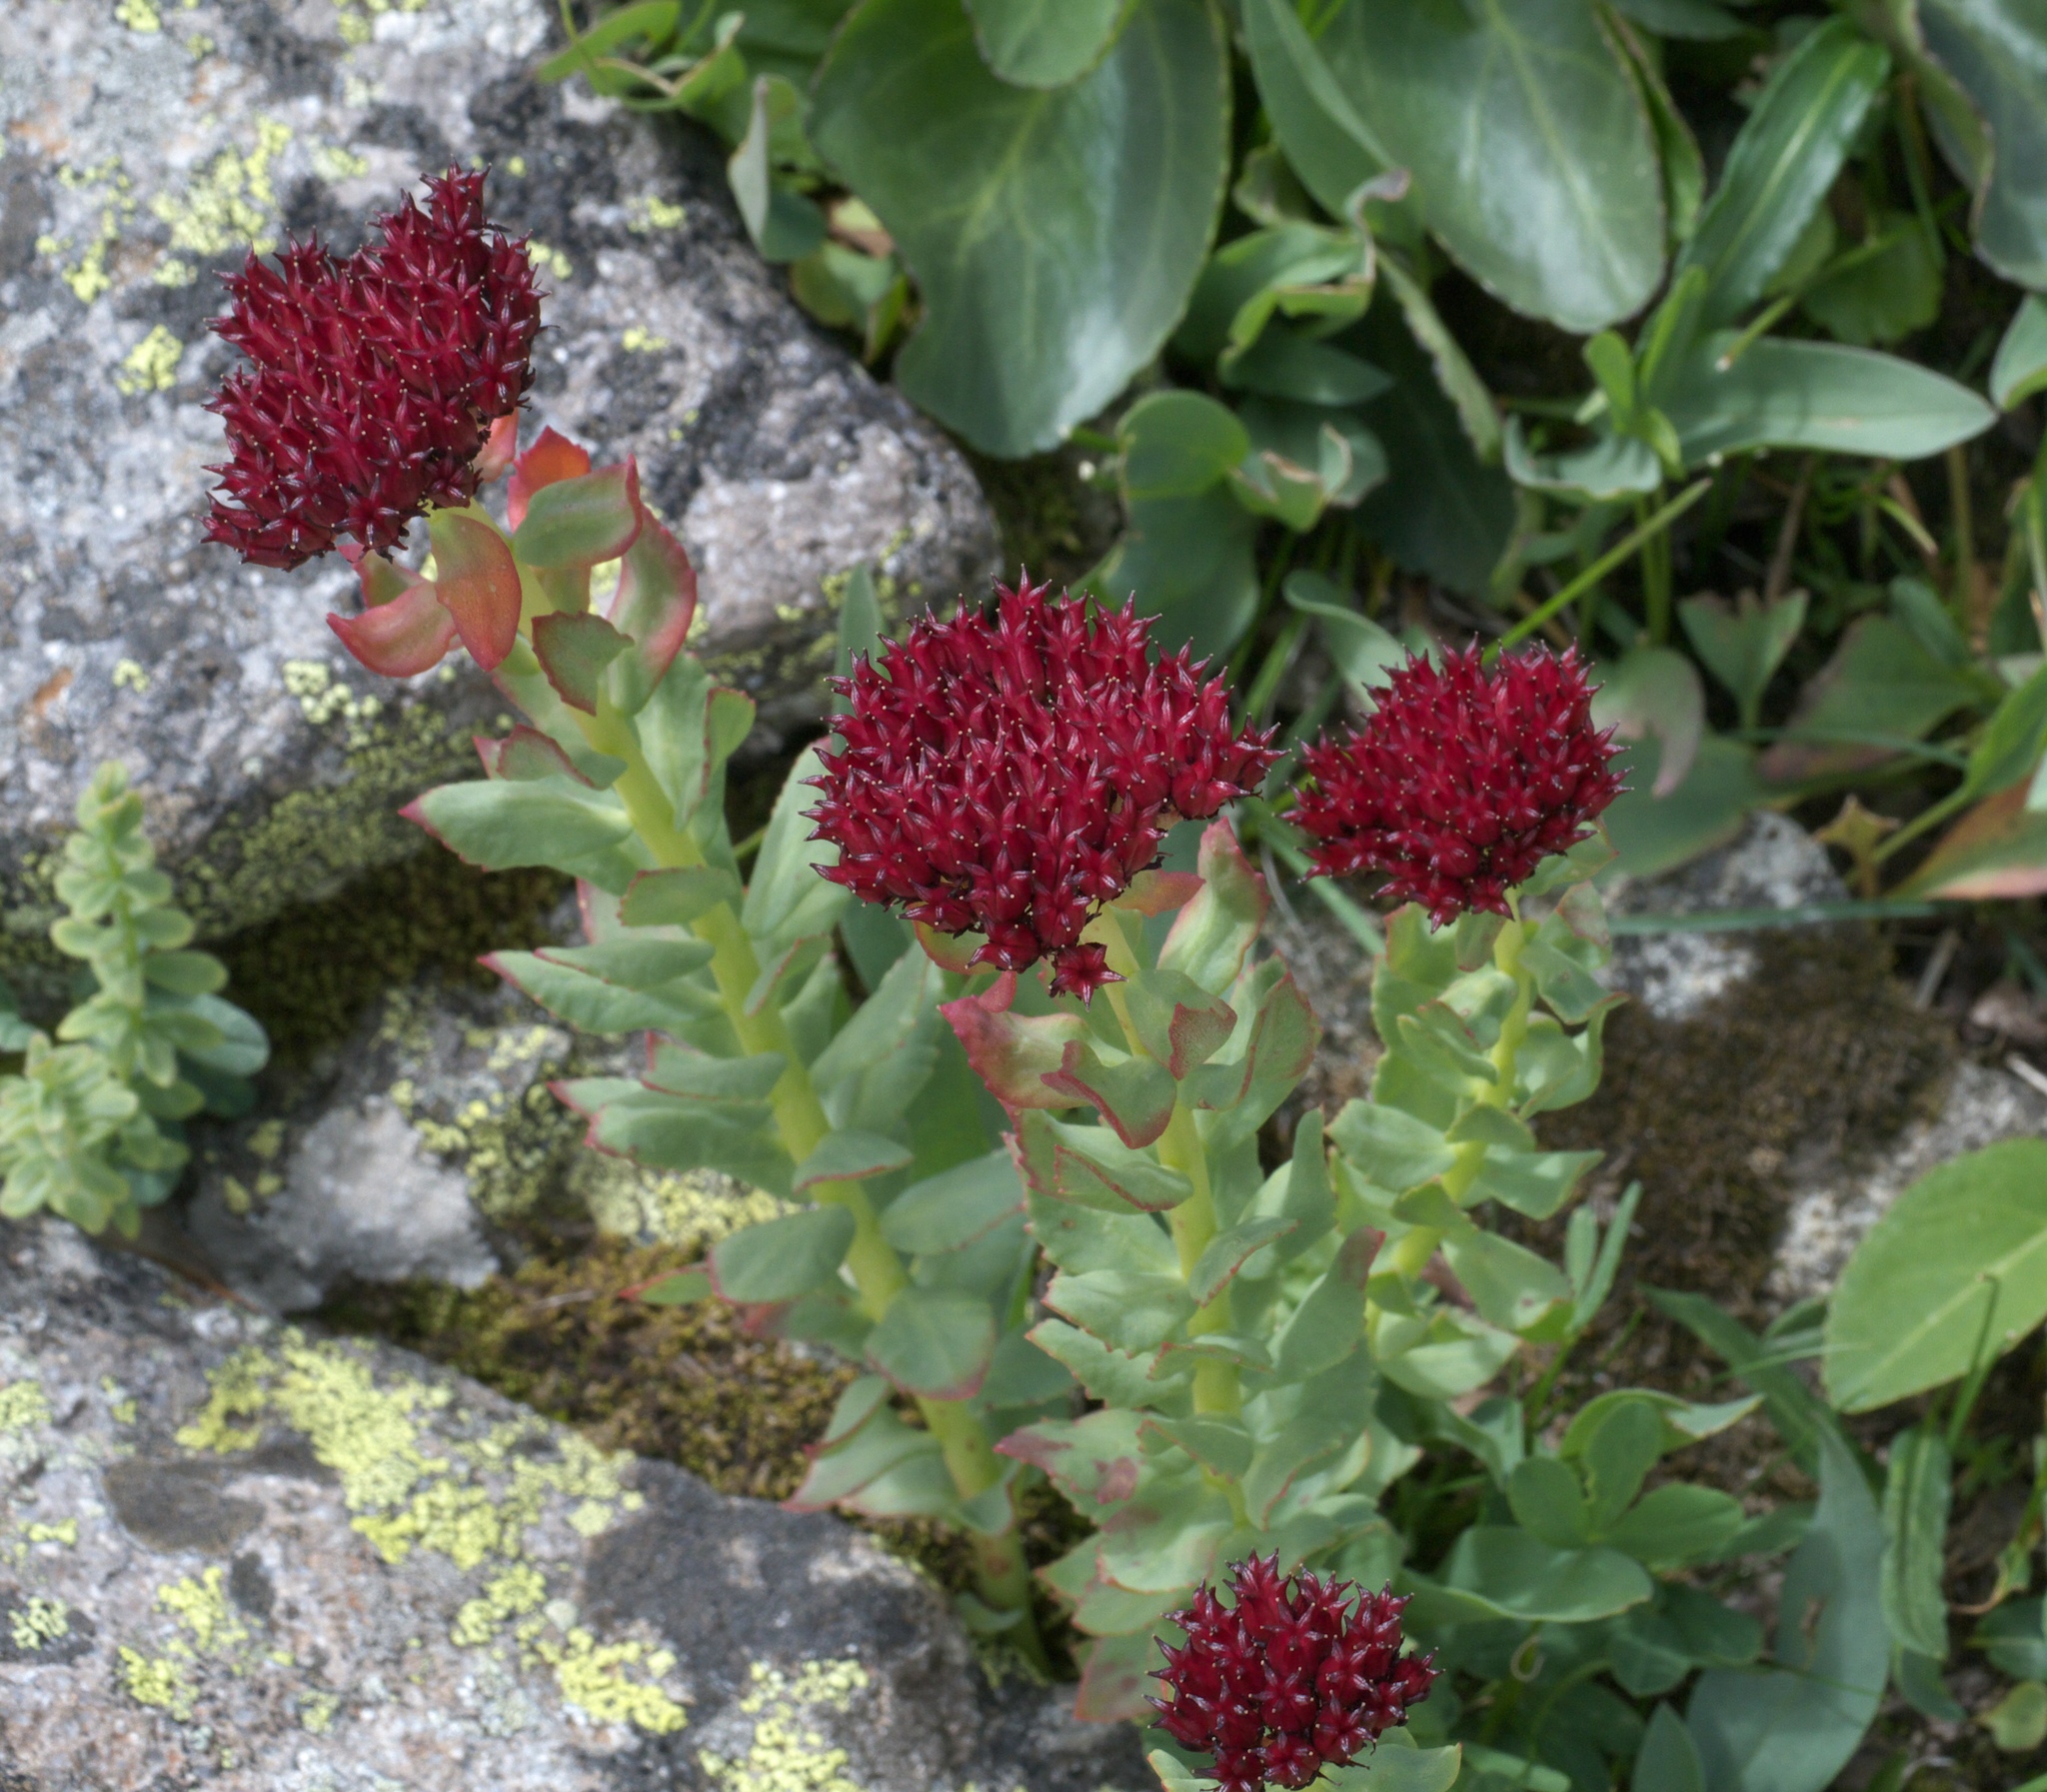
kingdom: Plantae
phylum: Tracheophyta
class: Magnoliopsida
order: Saxifragales
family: Crassulaceae
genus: Rhodiola
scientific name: Rhodiola integrifolia
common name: Western roseroot
